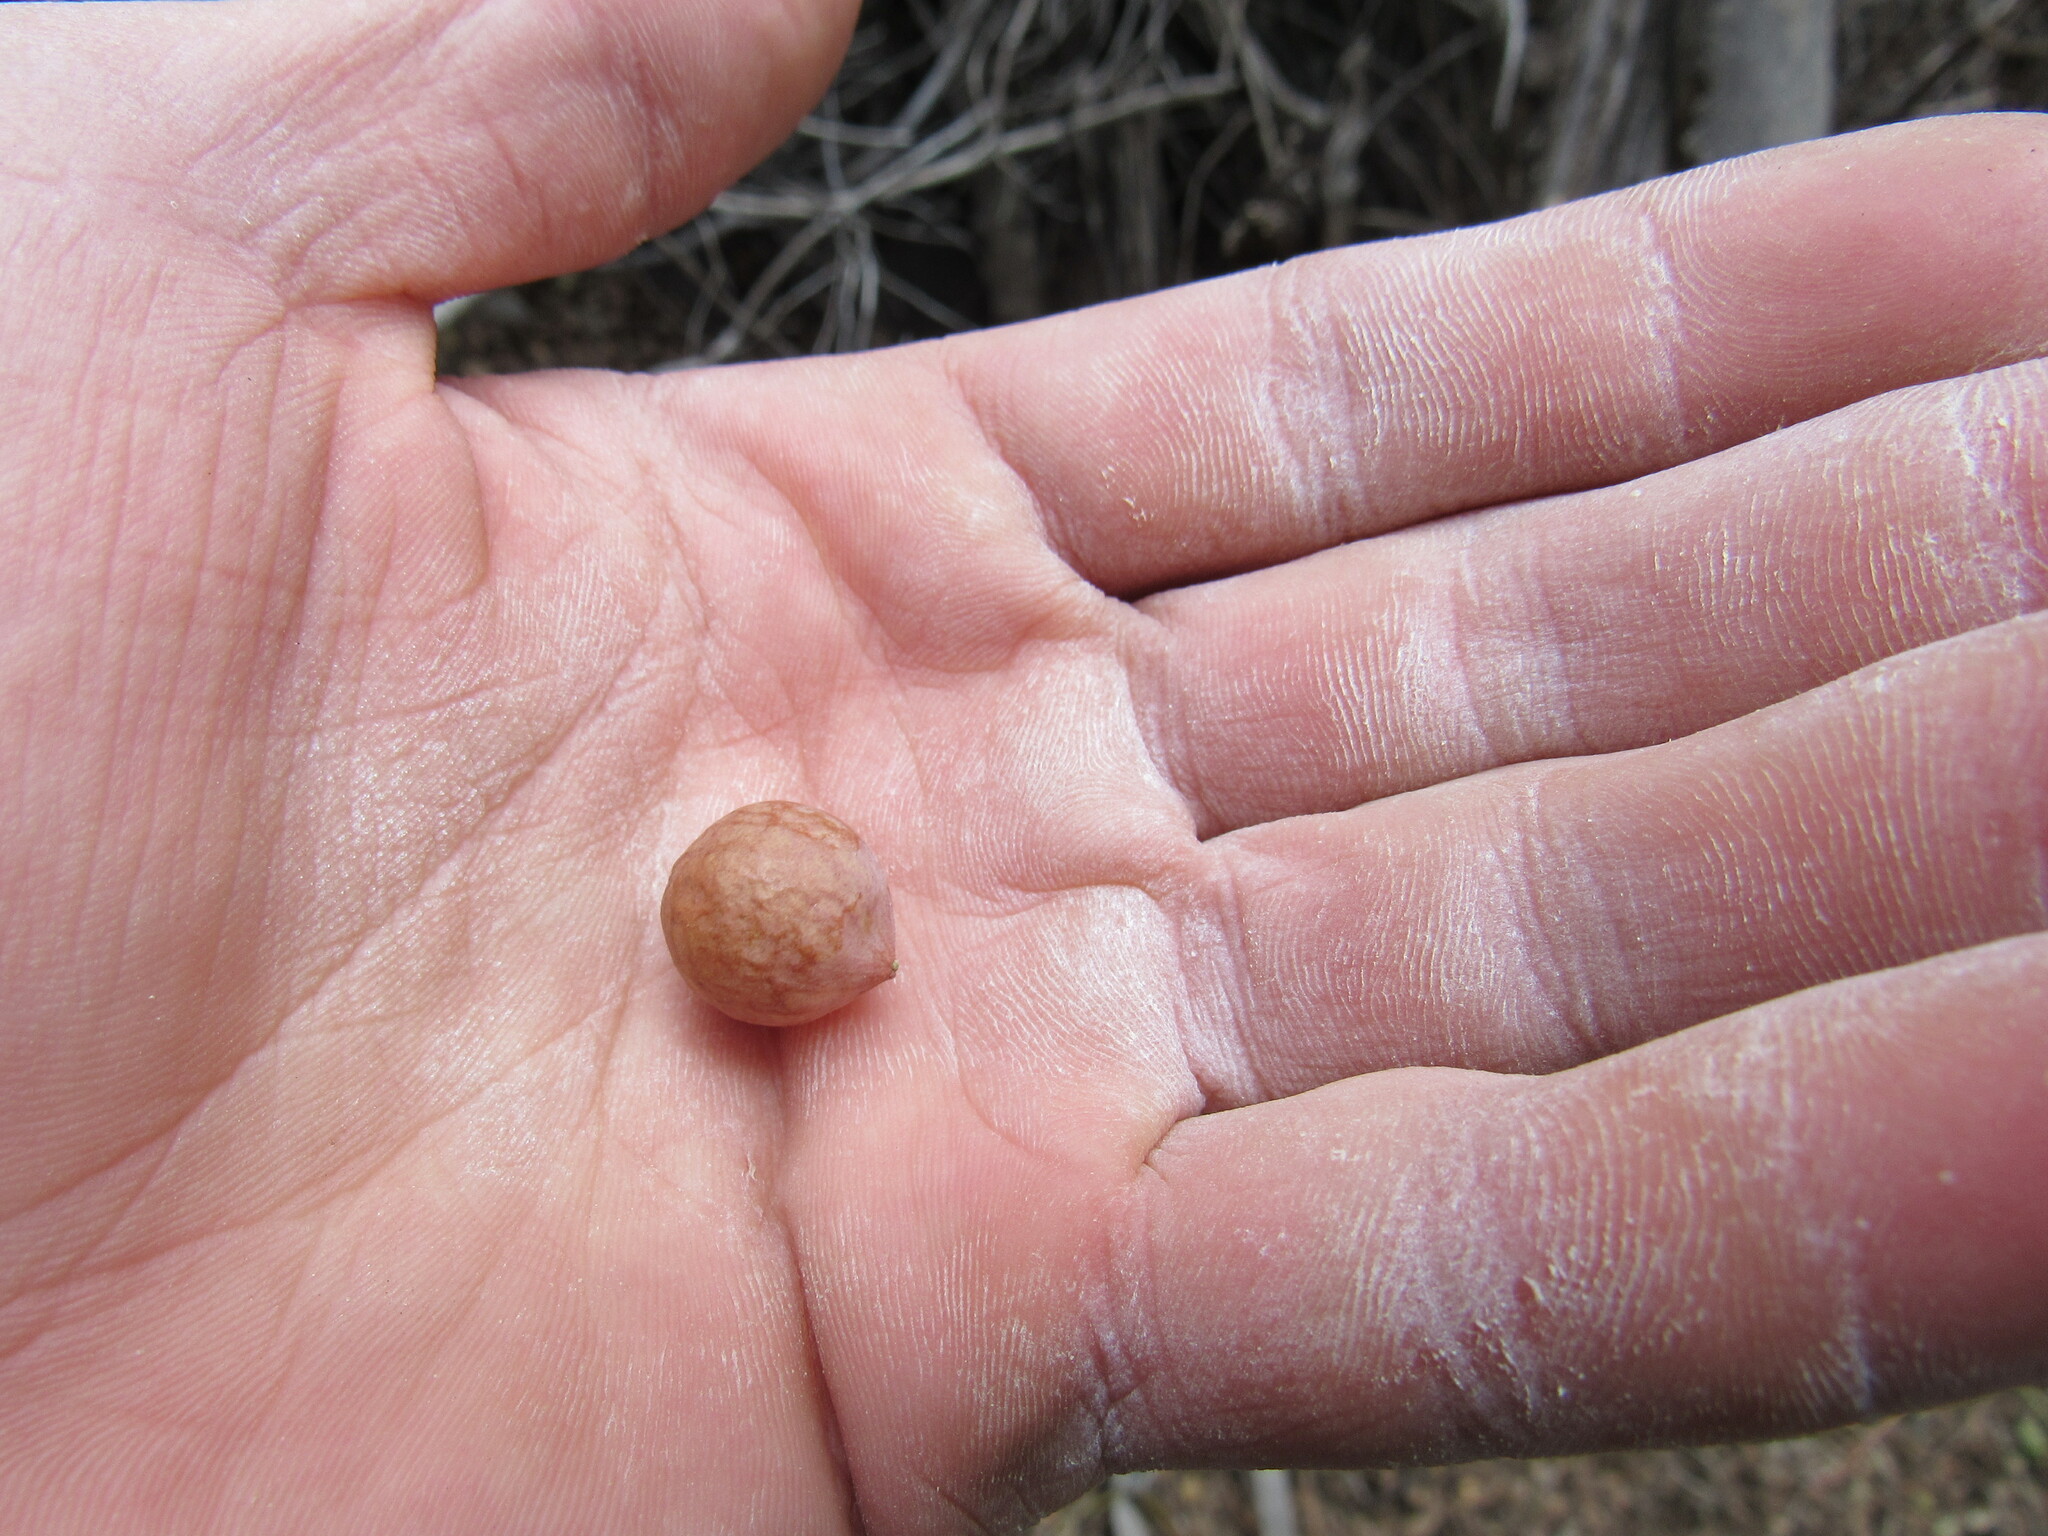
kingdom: Animalia
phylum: Arthropoda
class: Insecta
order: Hymenoptera
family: Cynipidae
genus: Andricus
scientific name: Andricus
